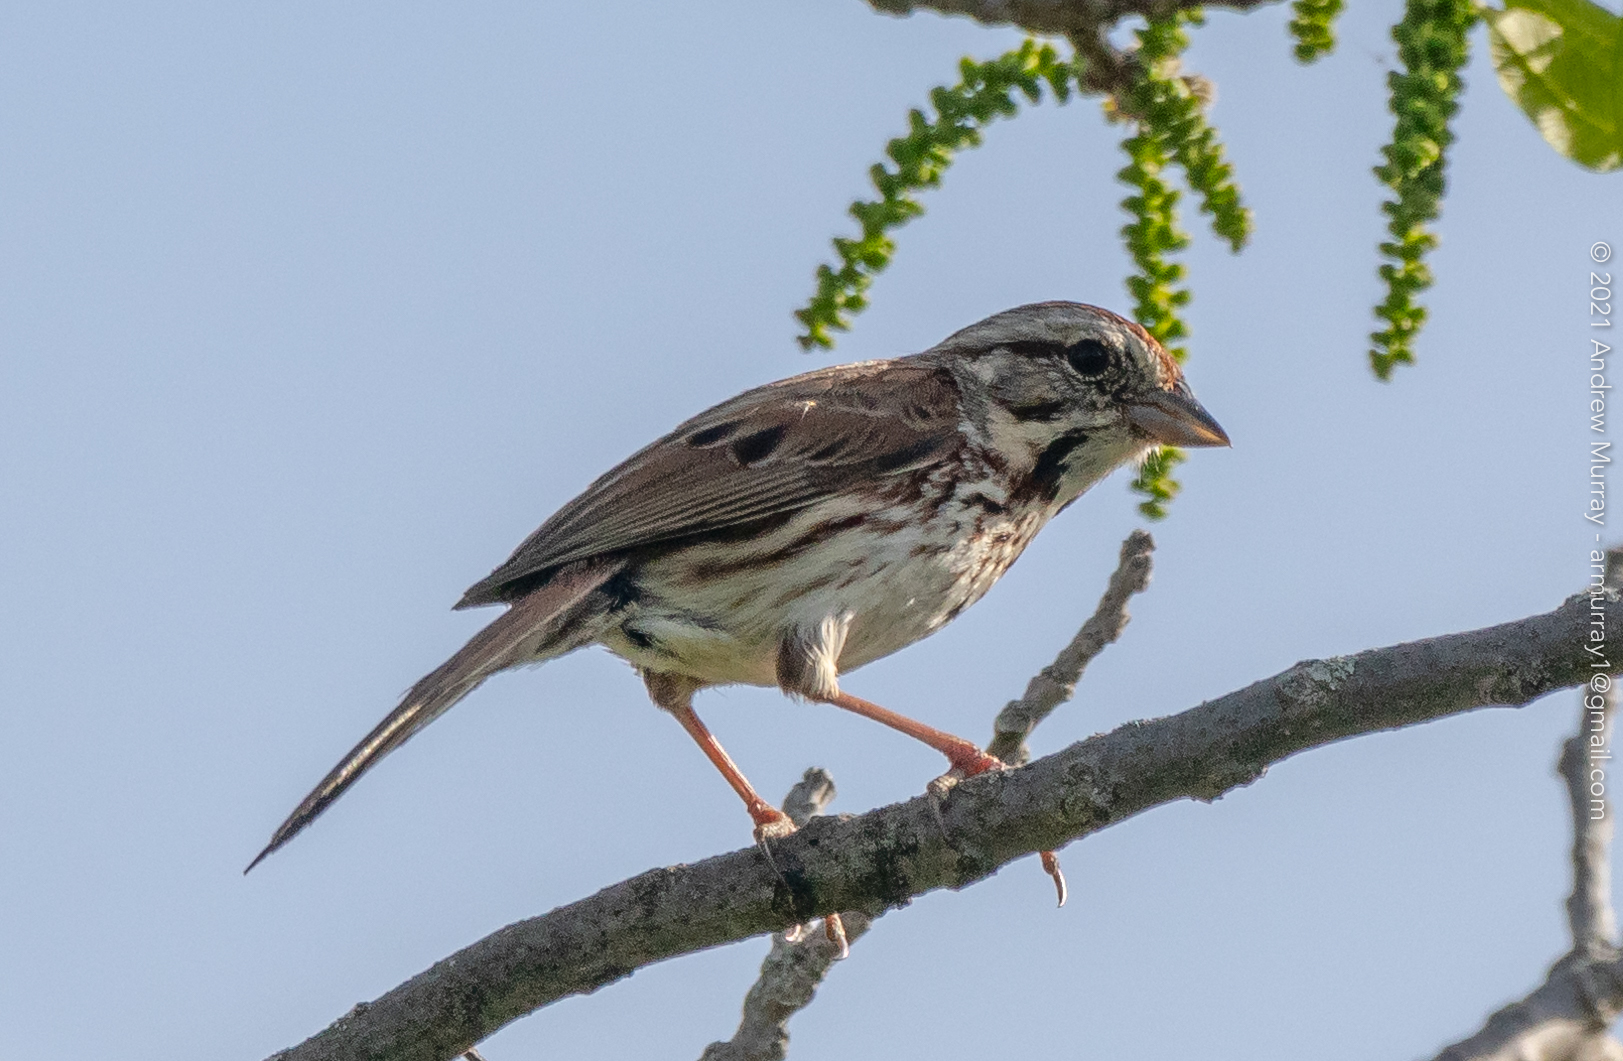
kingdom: Animalia
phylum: Chordata
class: Aves
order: Passeriformes
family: Passerellidae
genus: Melospiza
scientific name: Melospiza melodia
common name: Song sparrow
